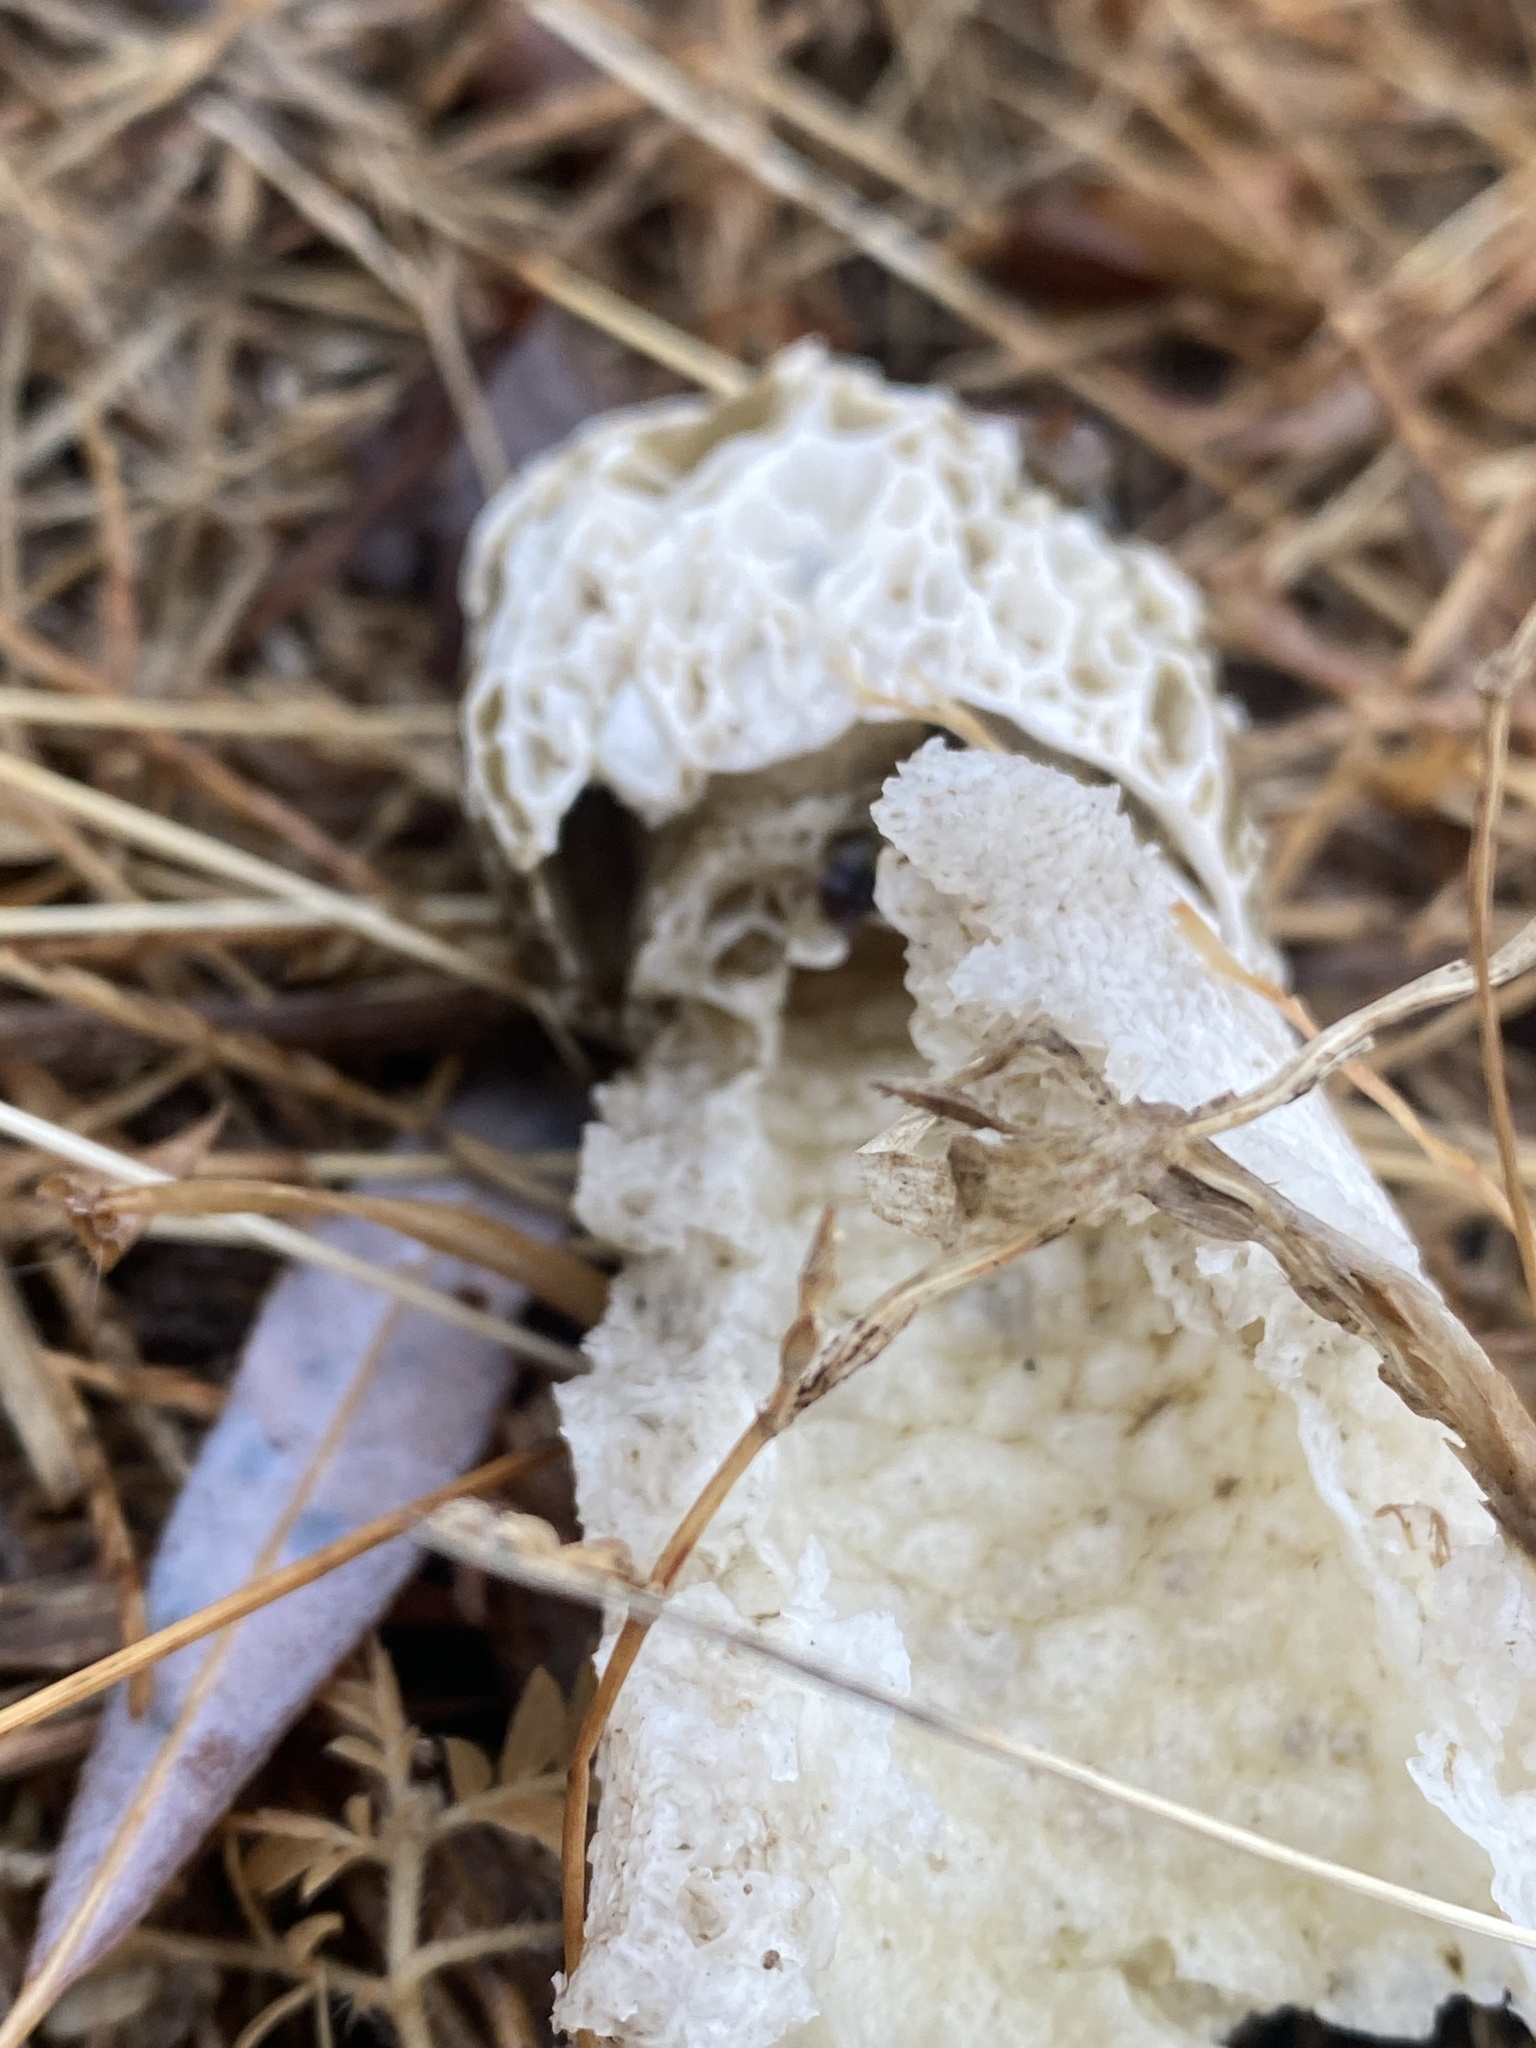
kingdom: Fungi
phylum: Basidiomycota
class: Agaricomycetes
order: Phallales
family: Phallaceae
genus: Phallus
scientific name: Phallus impudicus
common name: Common stinkhorn
